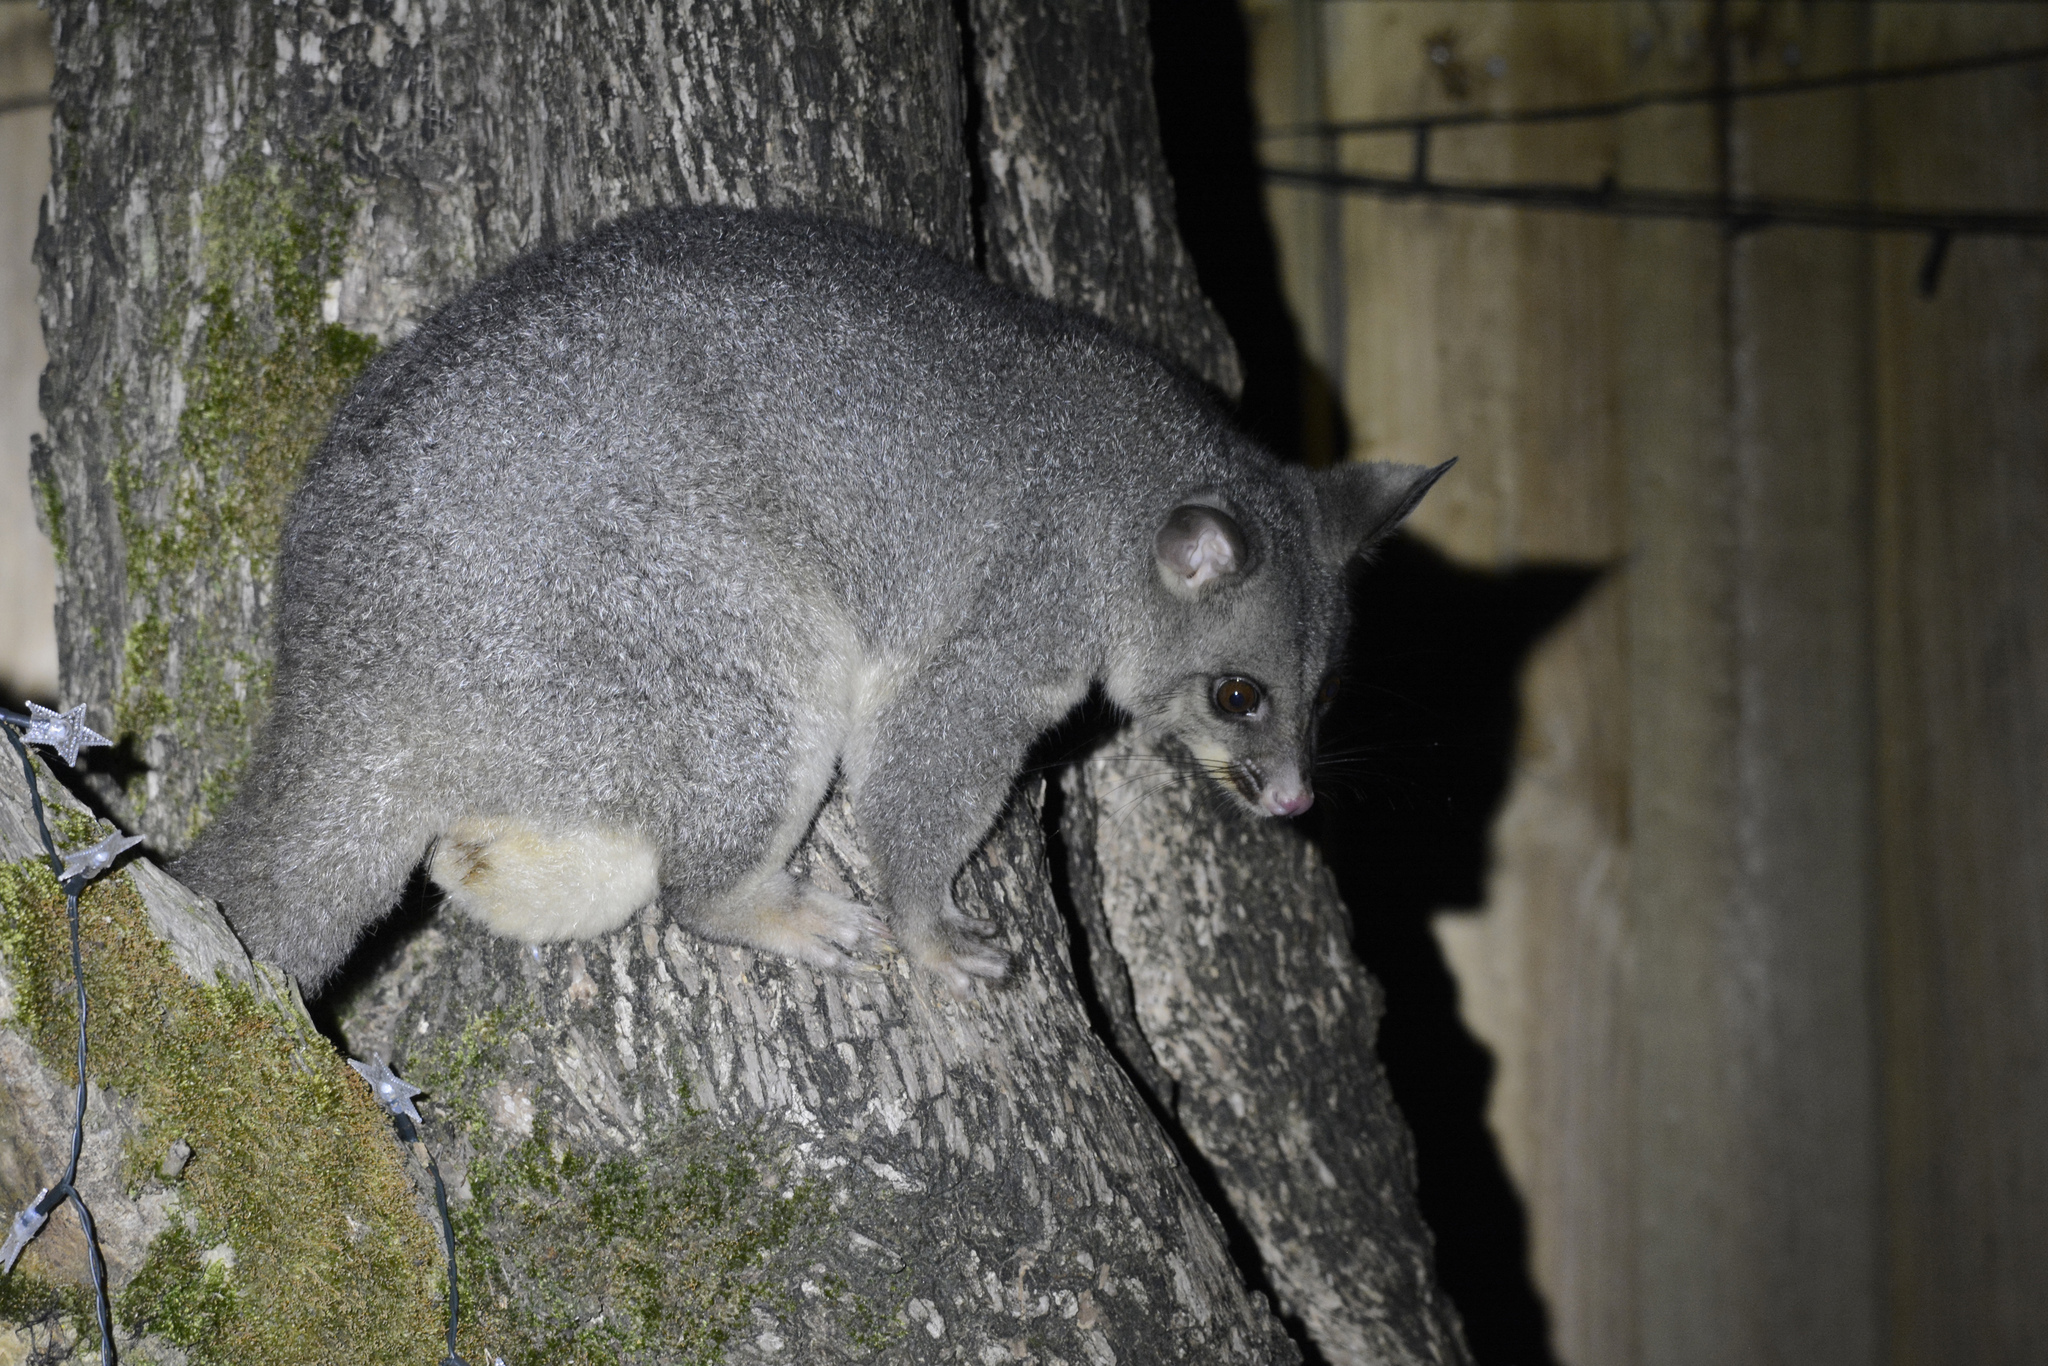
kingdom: Animalia
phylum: Chordata
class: Mammalia
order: Diprotodontia
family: Phalangeridae
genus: Trichosurus
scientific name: Trichosurus vulpecula
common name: Common brushtail
